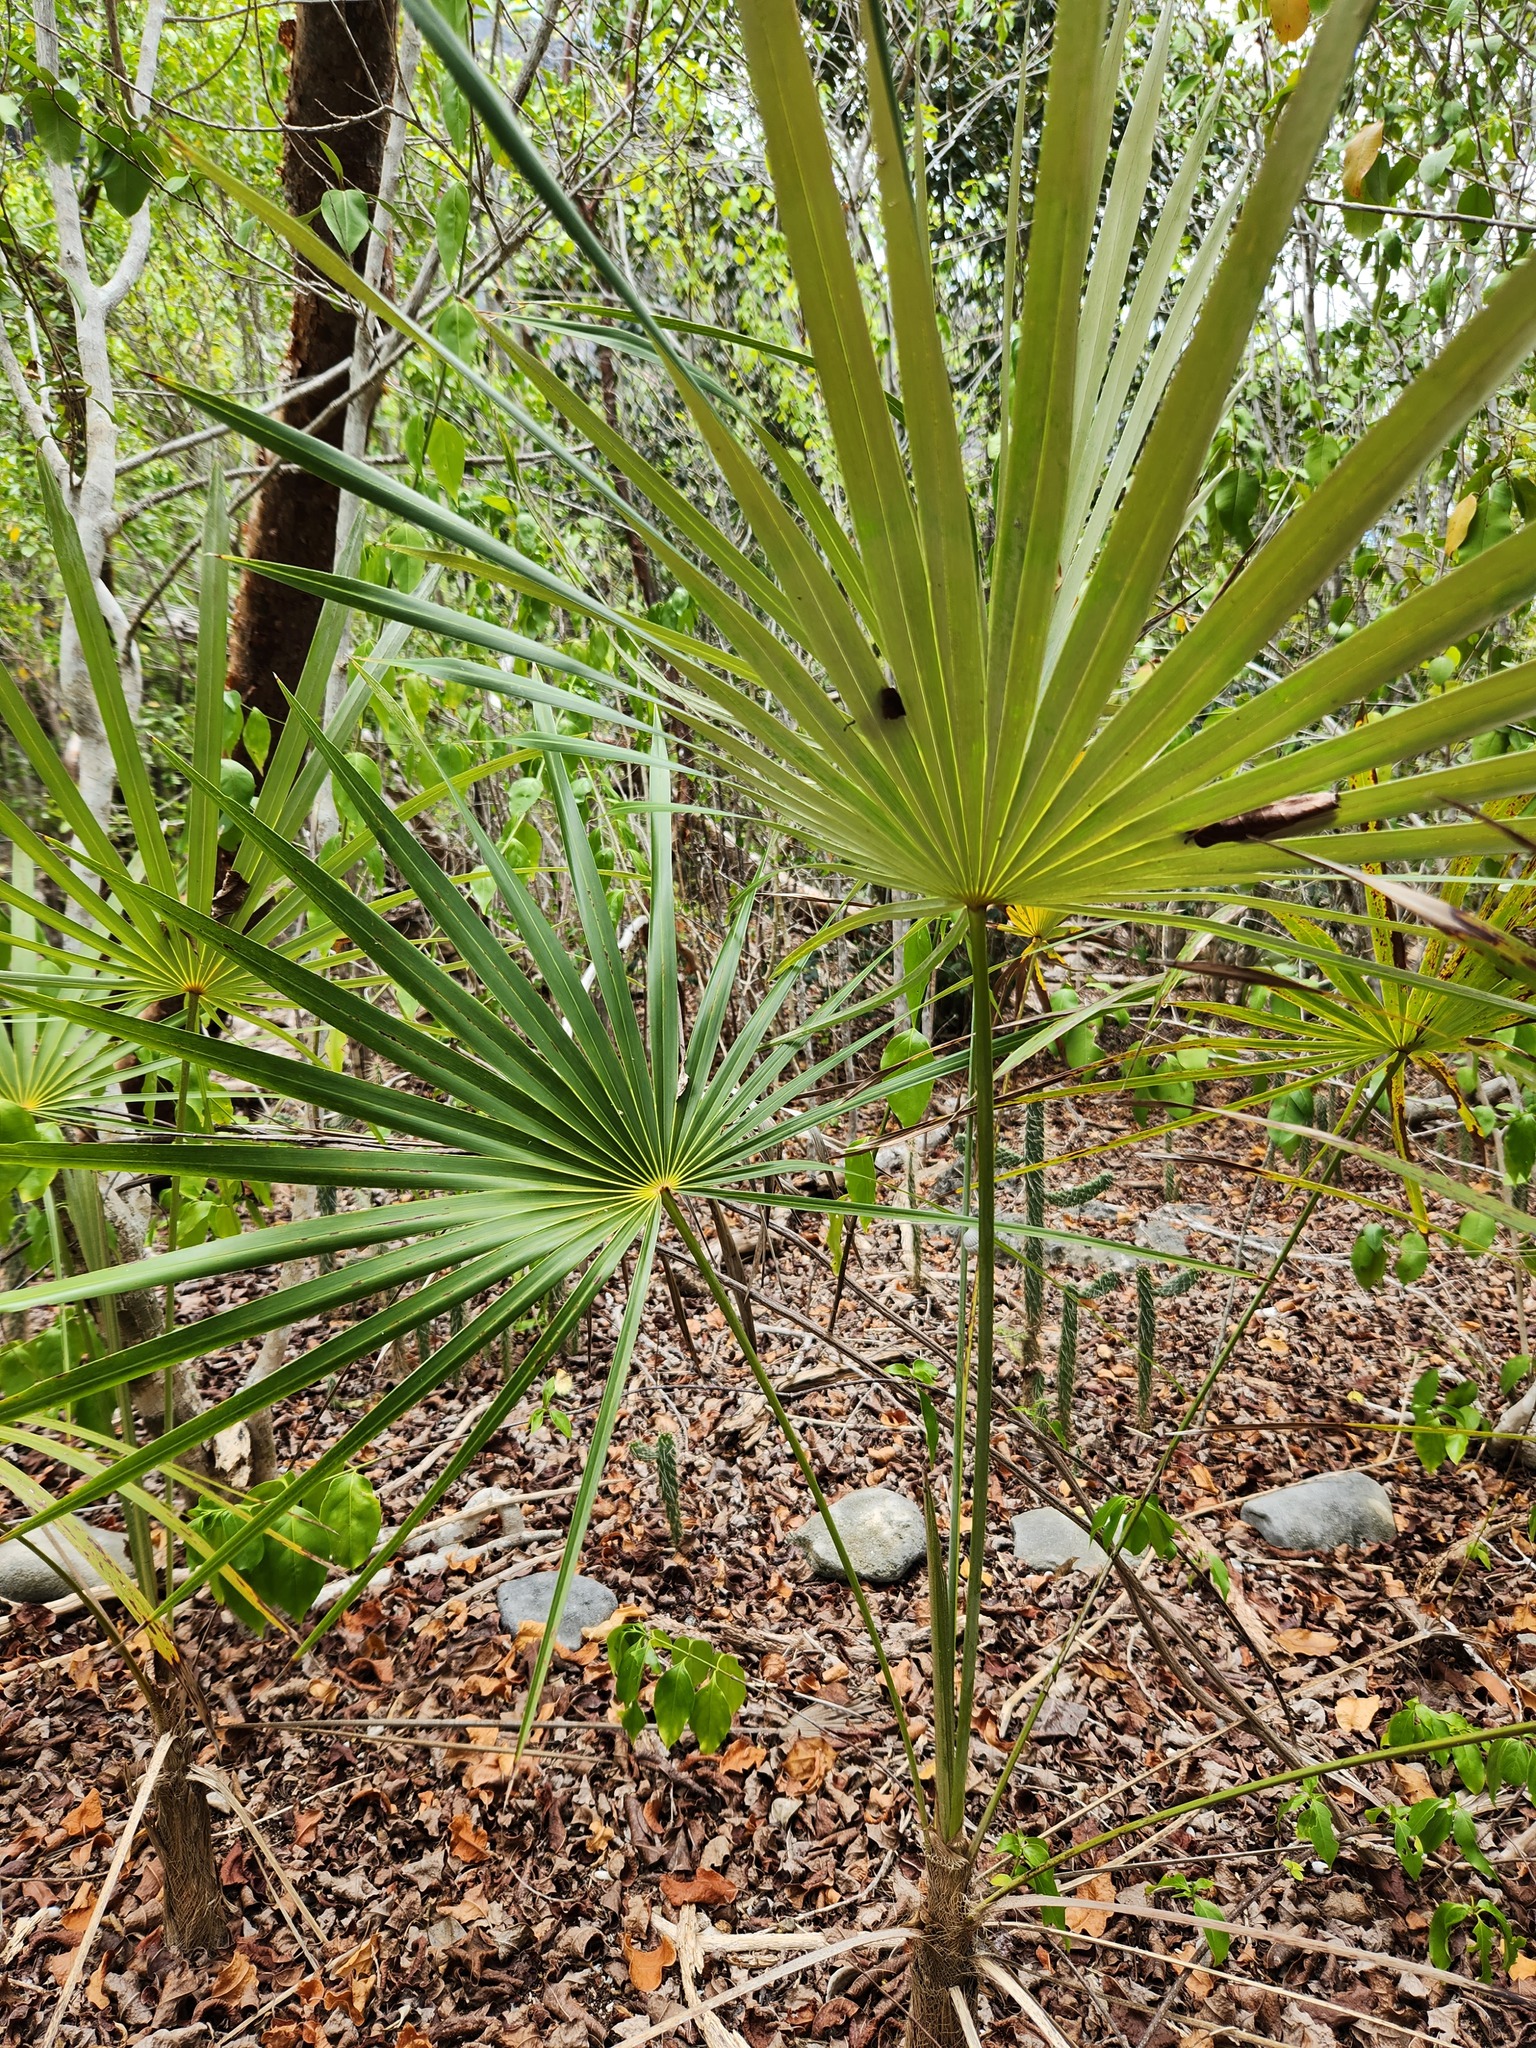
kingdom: Plantae
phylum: Tracheophyta
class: Liliopsida
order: Arecales
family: Arecaceae
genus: Coccothrinax
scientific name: Coccothrinax proctorii
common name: Silver palm
